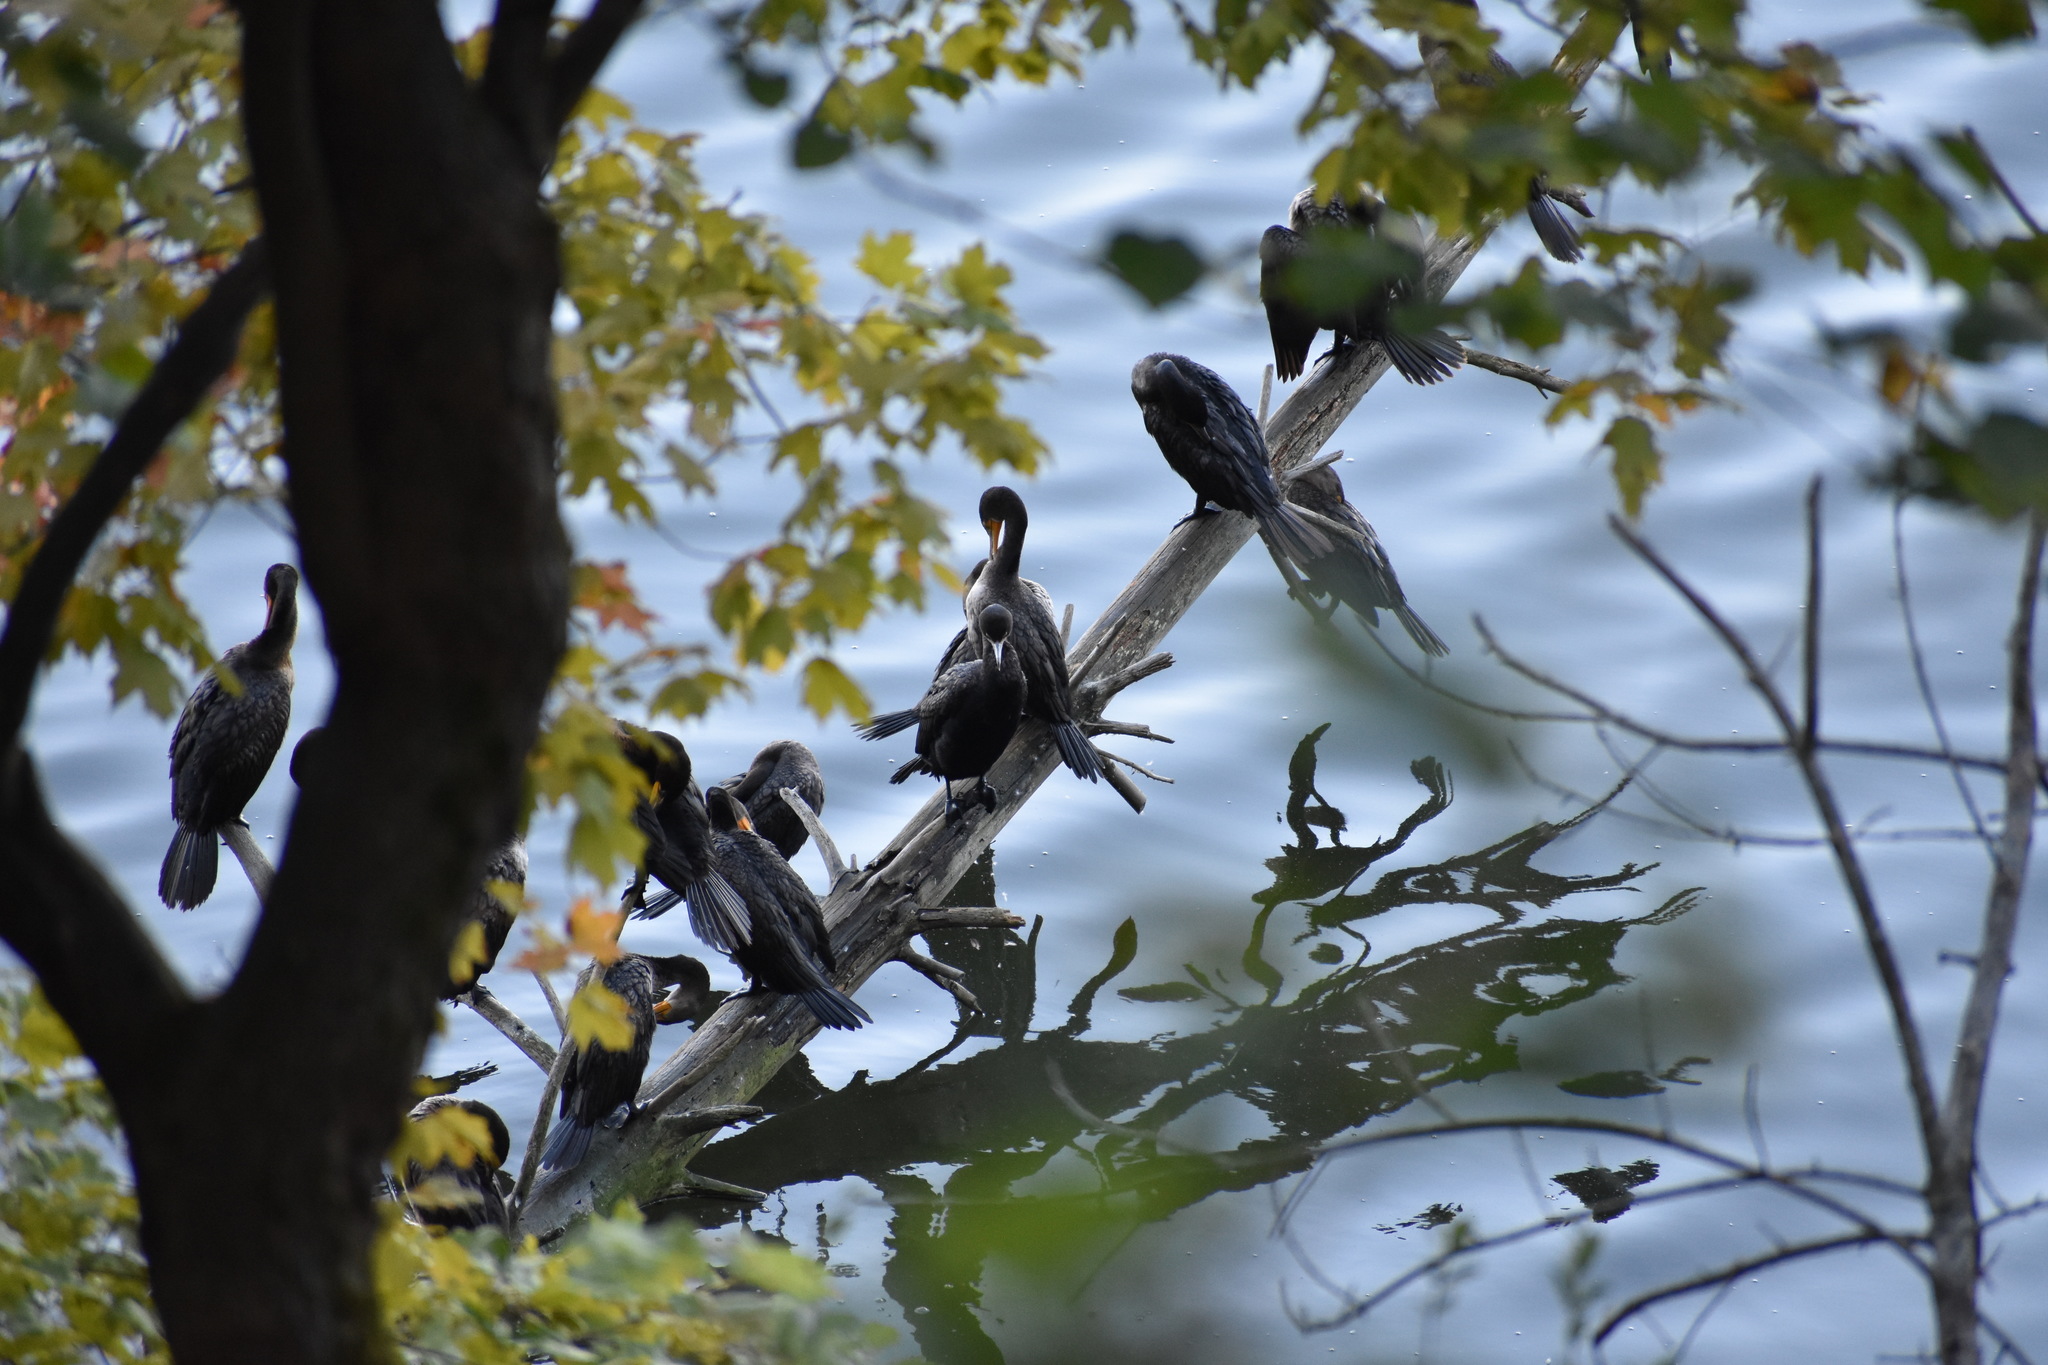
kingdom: Animalia
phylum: Chordata
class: Aves
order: Suliformes
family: Phalacrocoracidae
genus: Phalacrocorax
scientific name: Phalacrocorax auritus
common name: Double-crested cormorant
